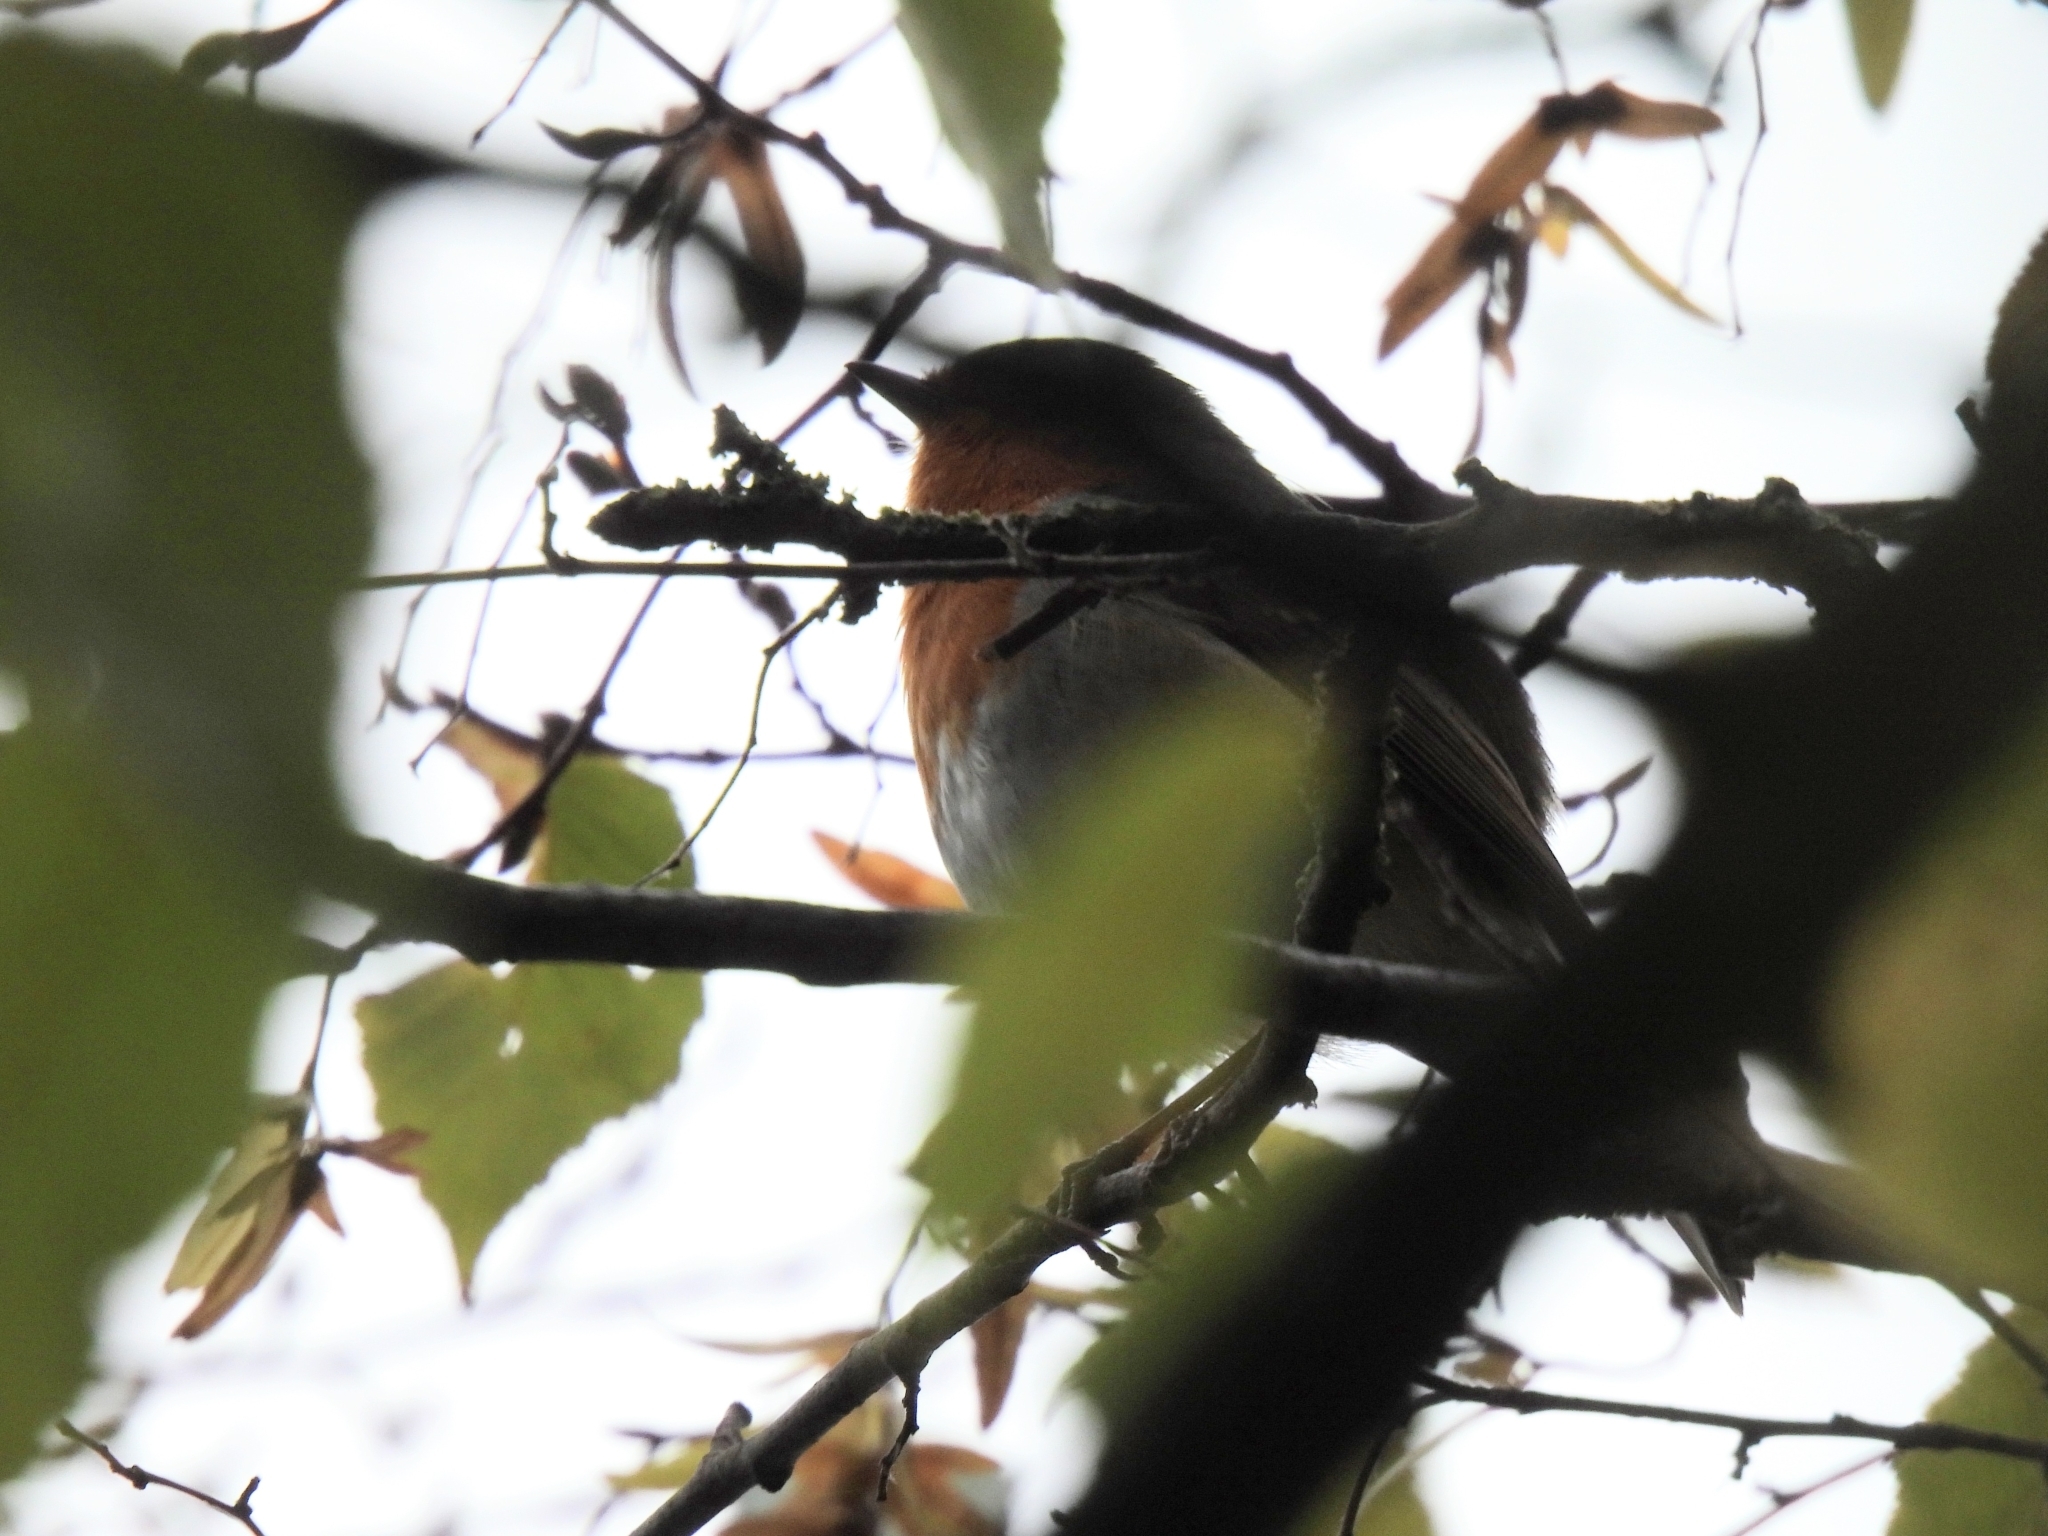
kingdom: Animalia
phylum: Chordata
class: Aves
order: Passeriformes
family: Muscicapidae
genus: Erithacus
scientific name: Erithacus rubecula
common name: European robin
